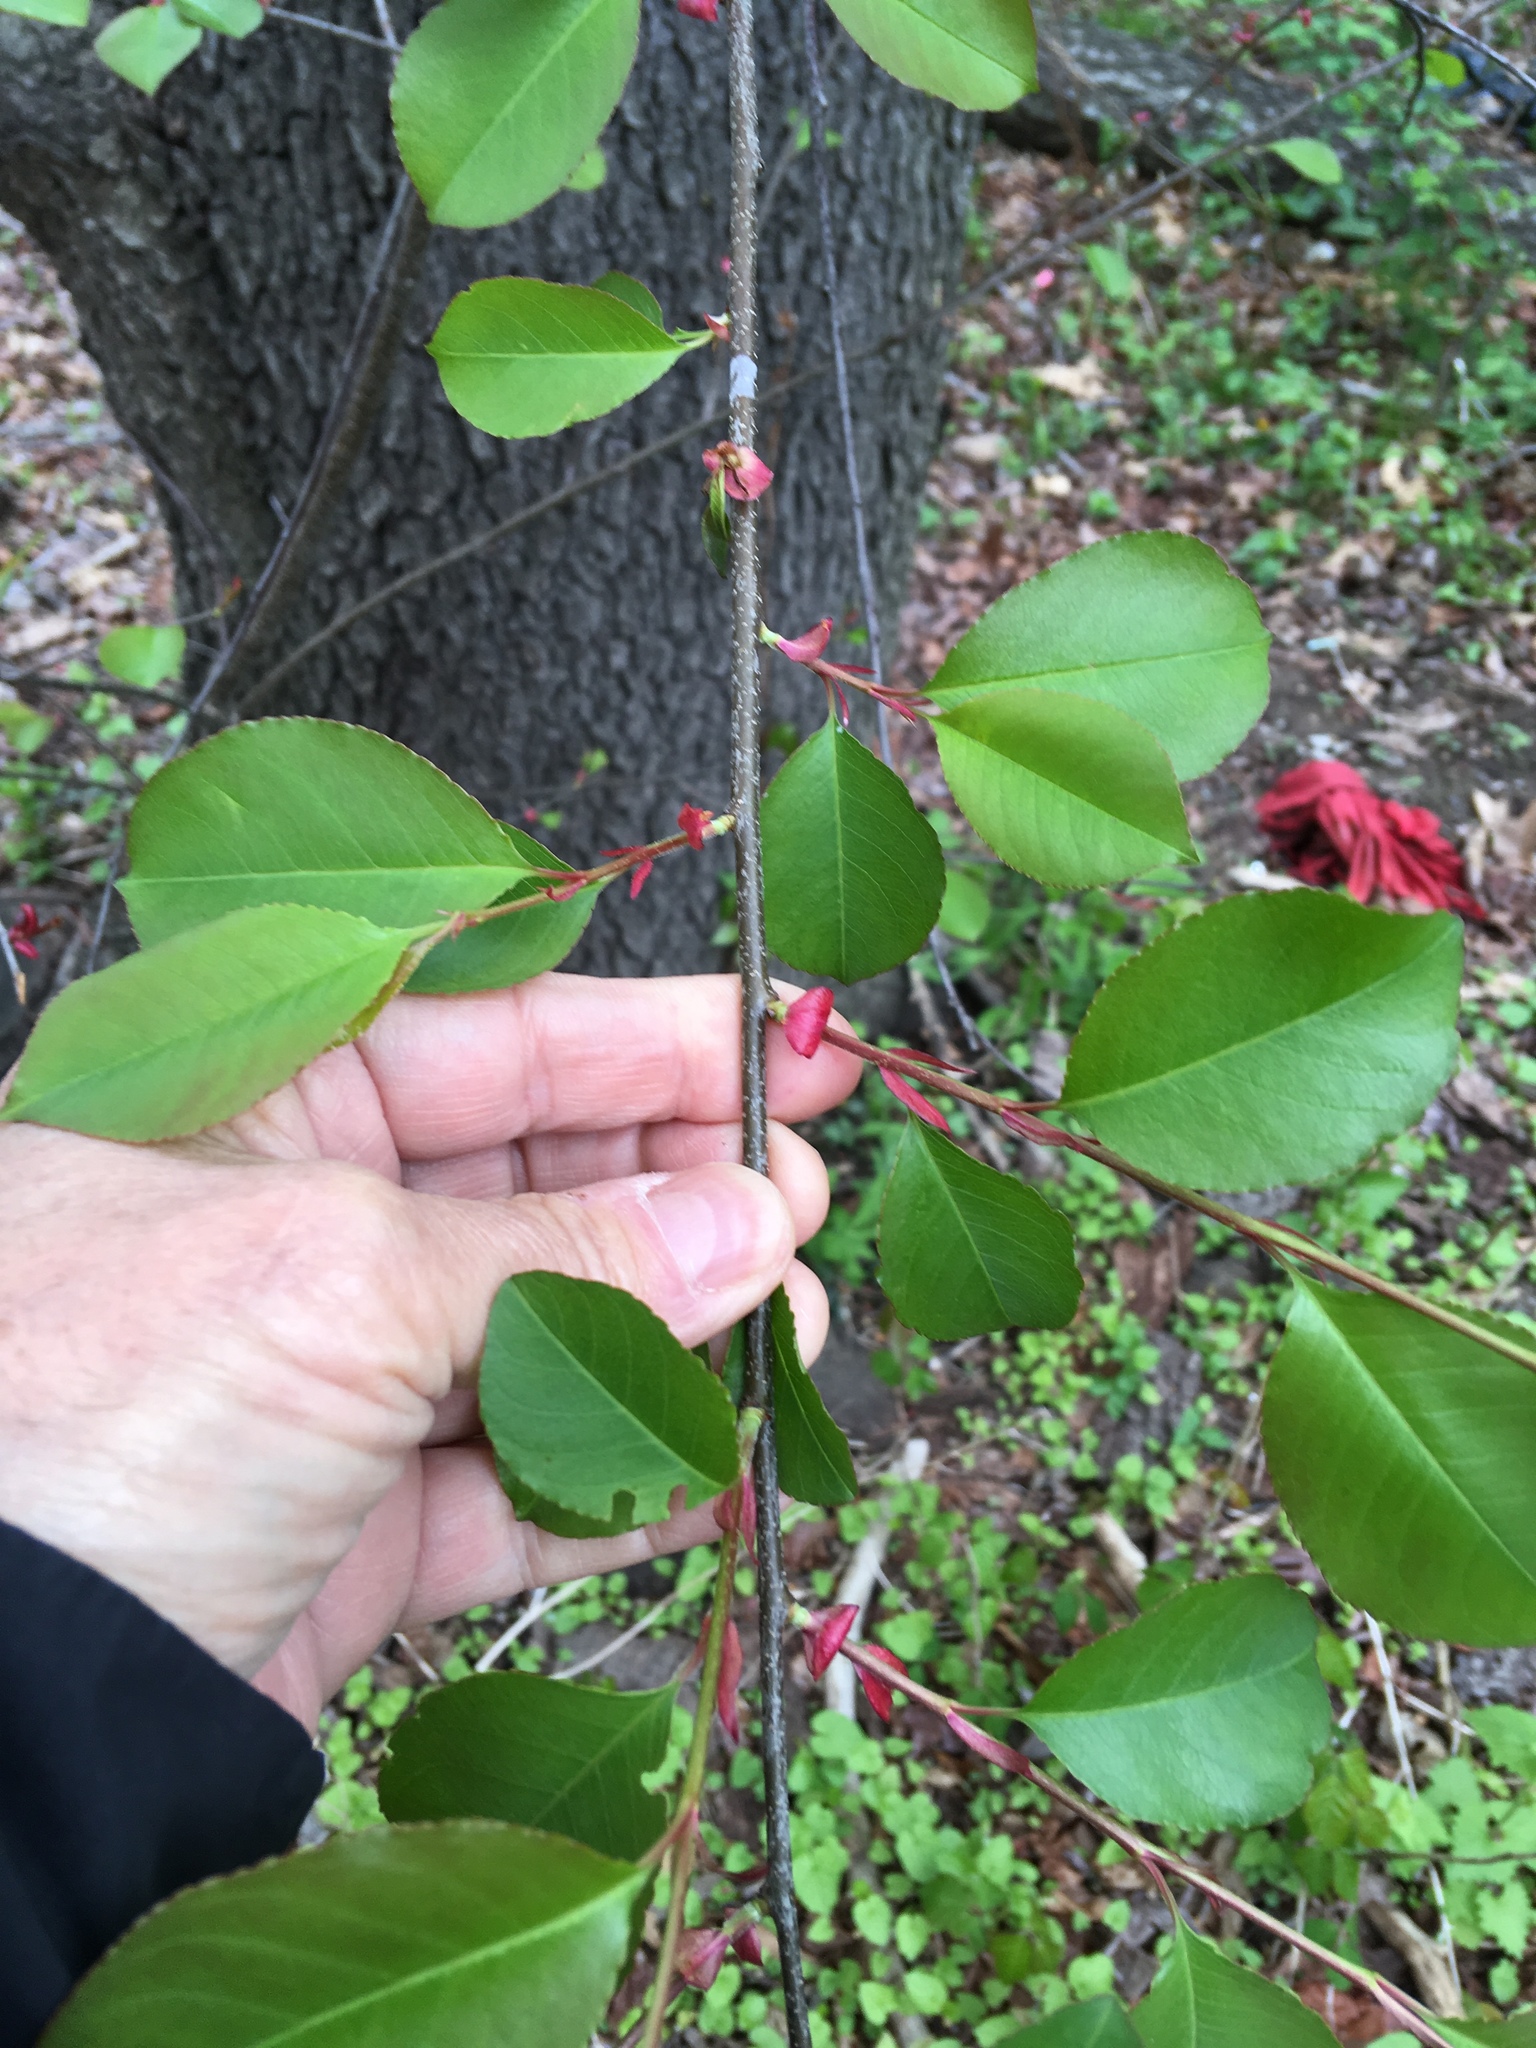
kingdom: Plantae
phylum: Tracheophyta
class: Magnoliopsida
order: Rosales
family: Rosaceae
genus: Prunus
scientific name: Prunus serotina
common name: Black cherry
